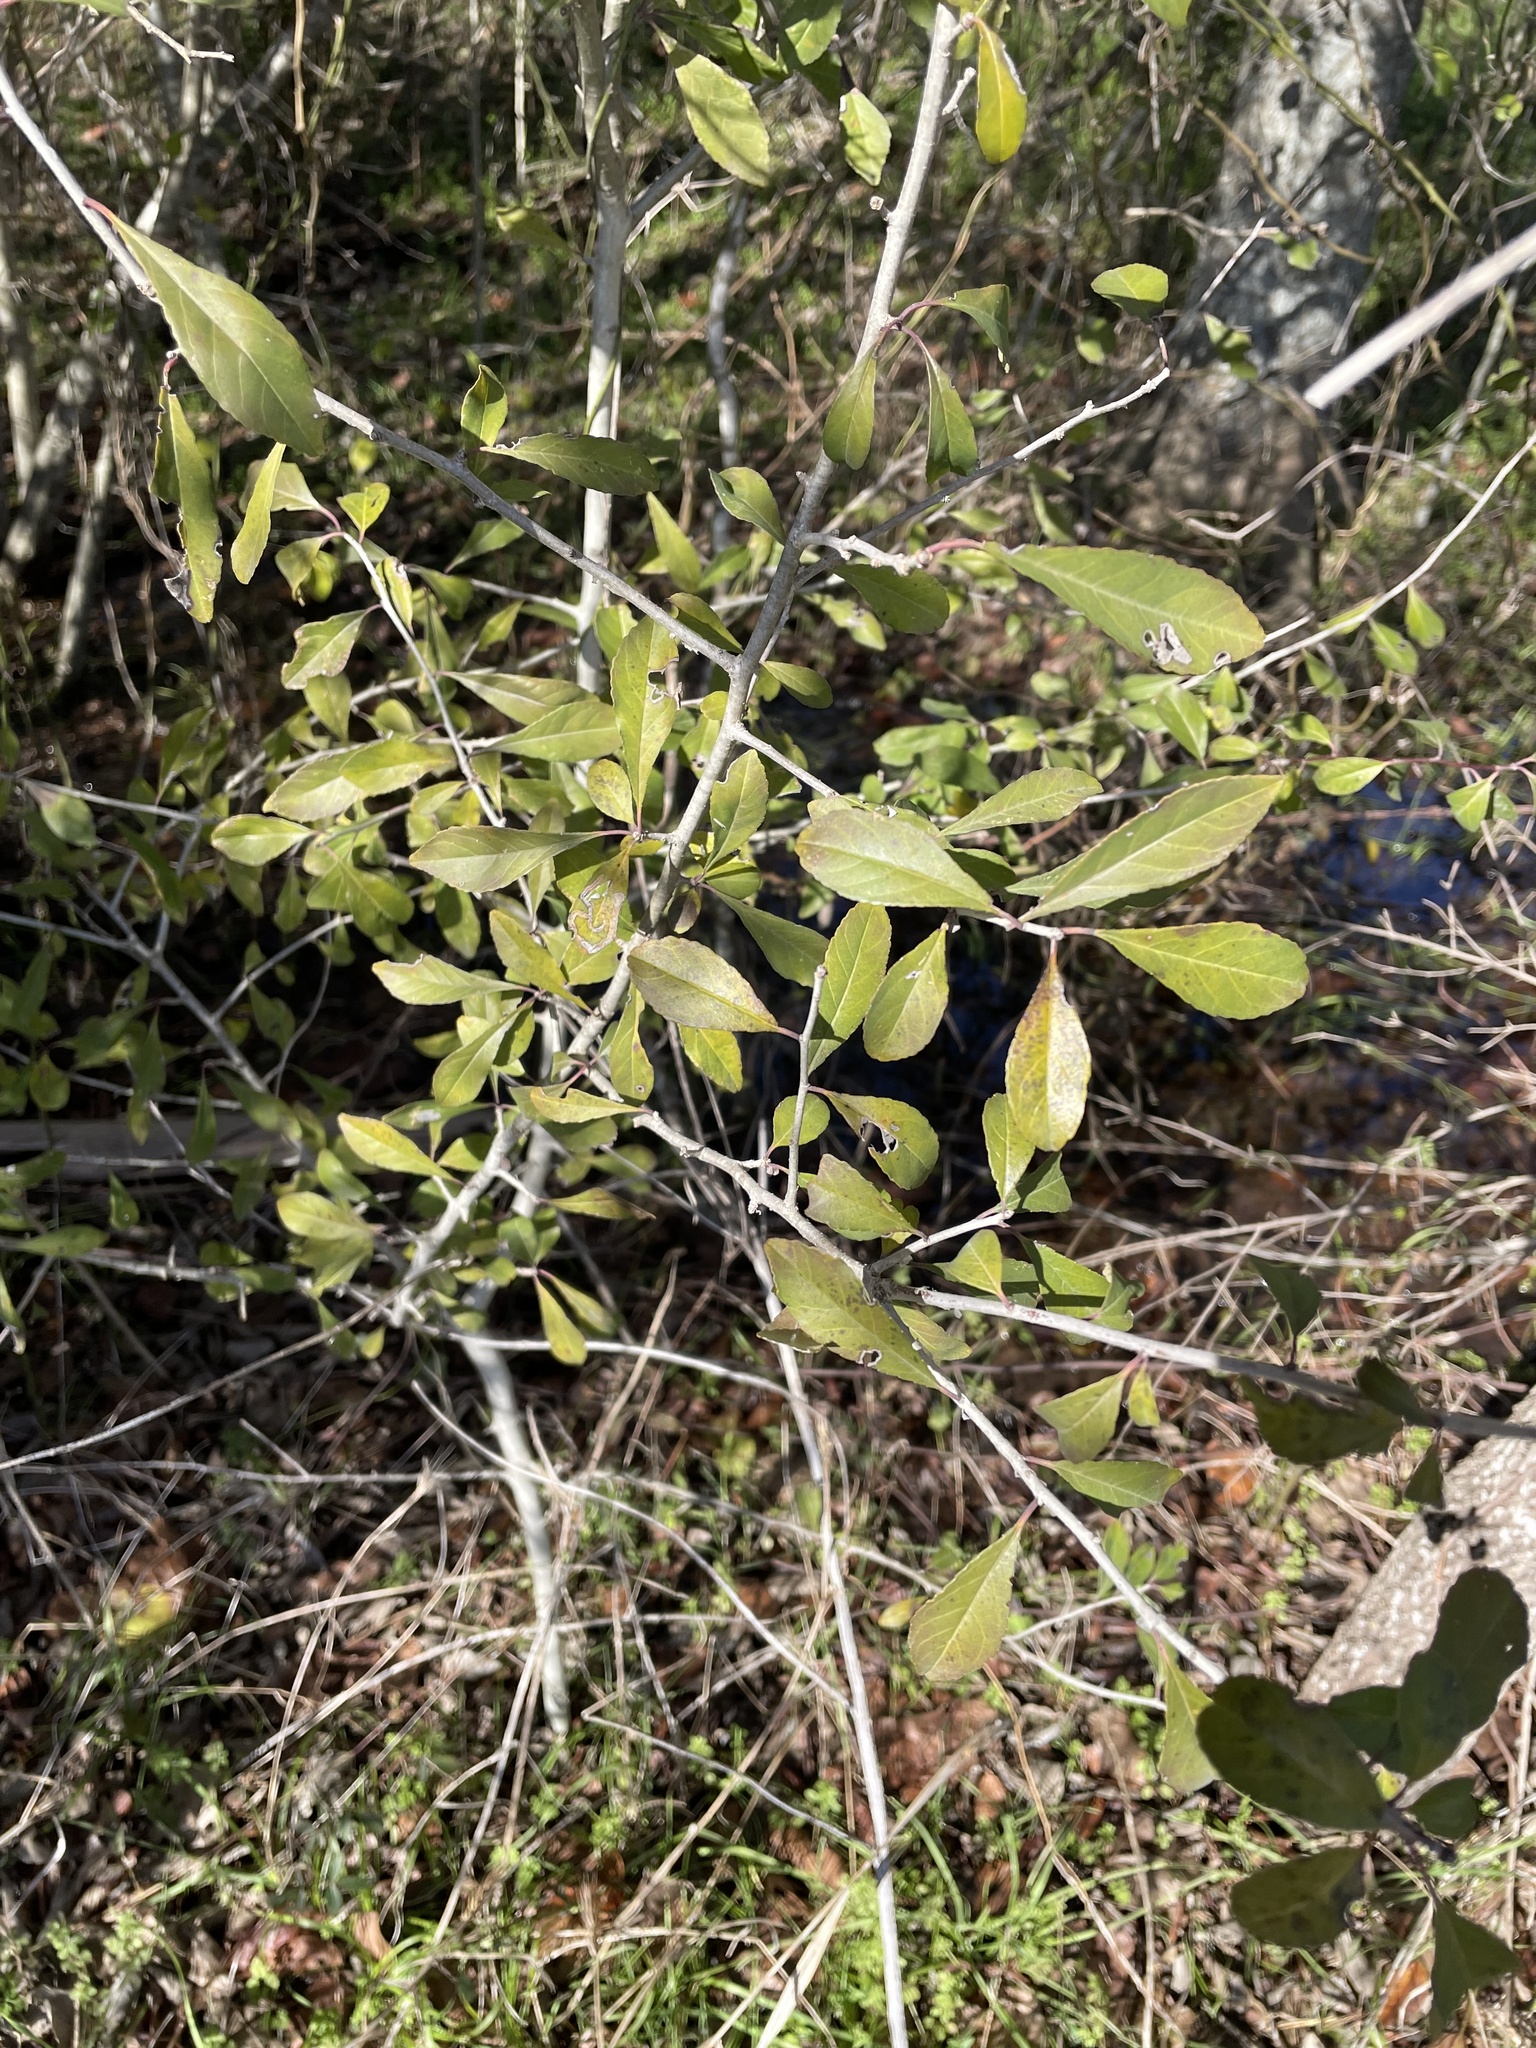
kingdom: Plantae
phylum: Tracheophyta
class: Magnoliopsida
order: Aquifoliales
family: Aquifoliaceae
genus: Ilex
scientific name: Ilex decidua
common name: Possum-haw
